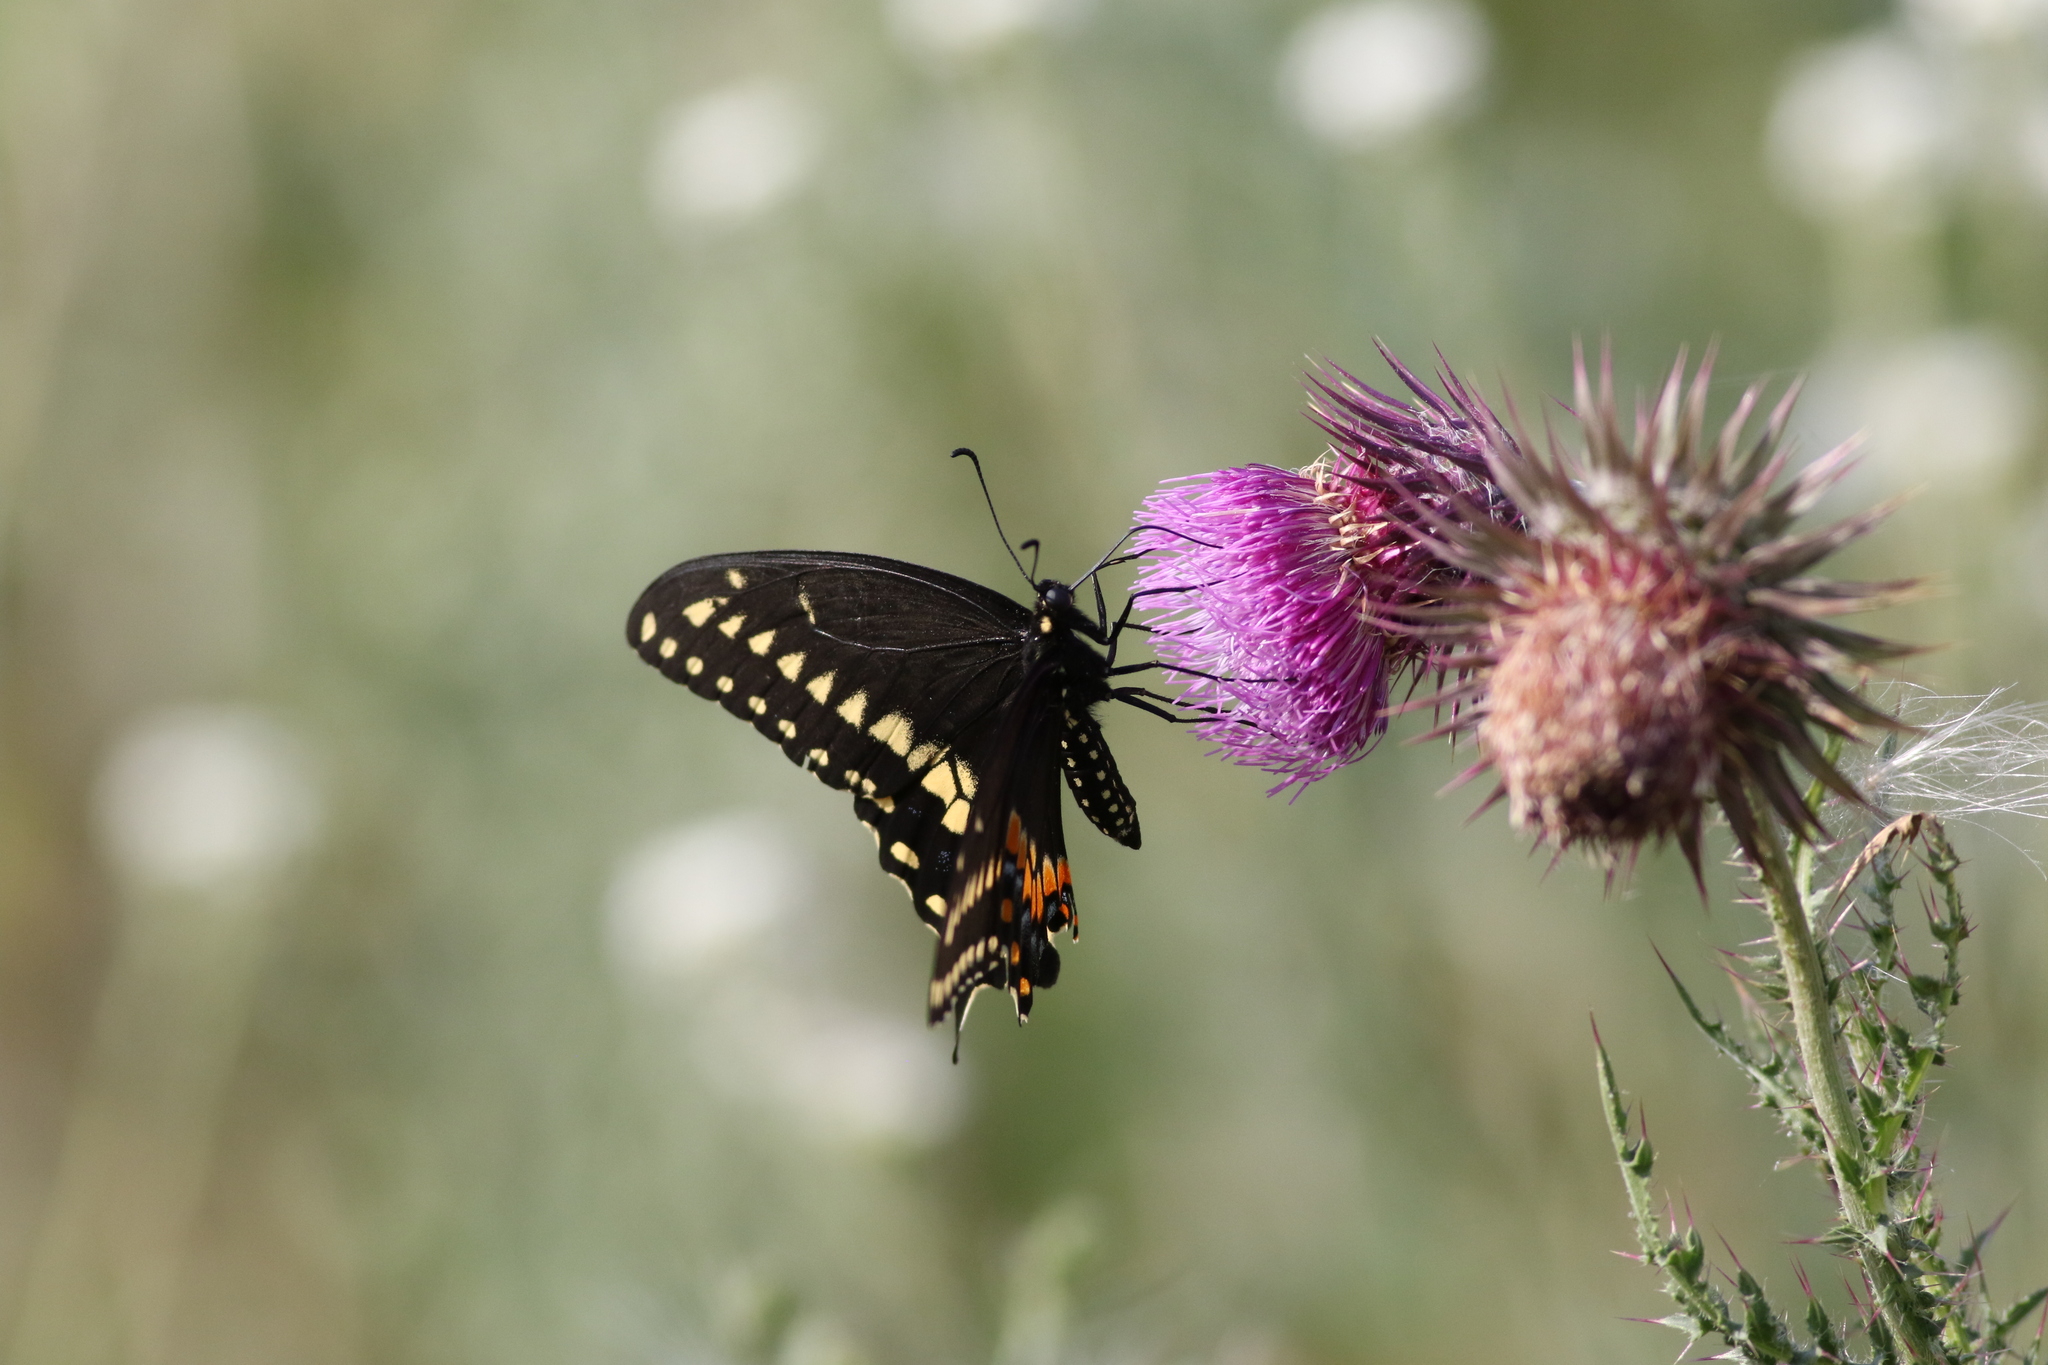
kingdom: Animalia
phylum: Arthropoda
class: Insecta
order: Lepidoptera
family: Papilionidae
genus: Papilio
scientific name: Papilio polyxenes
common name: Black swallowtail
